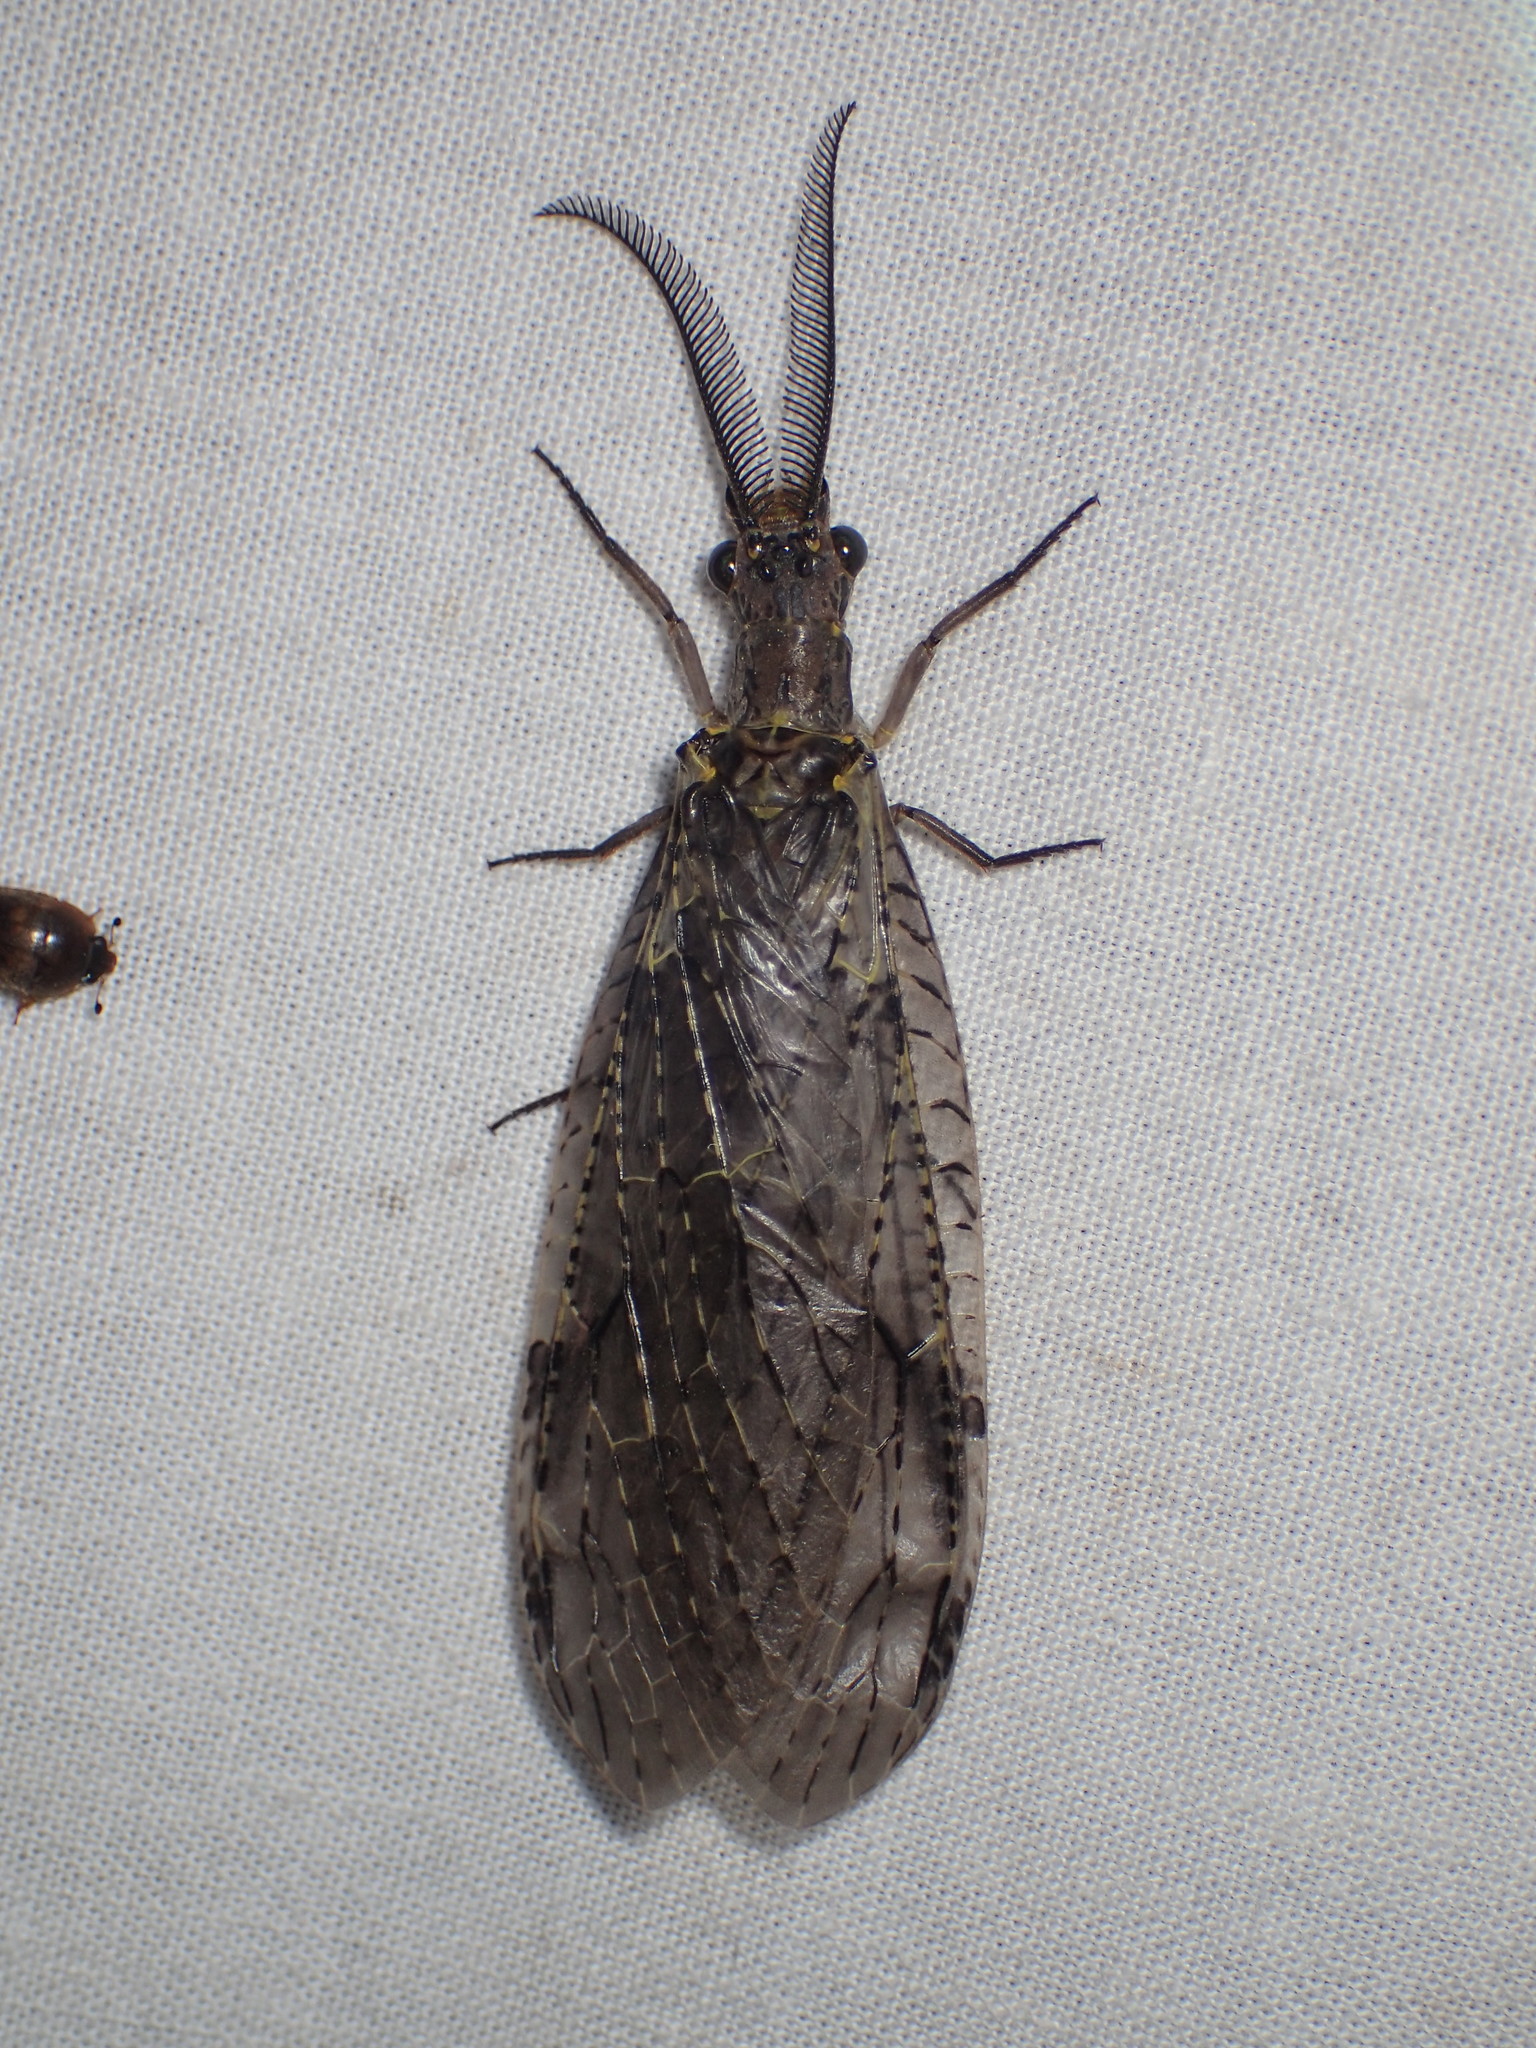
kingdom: Animalia
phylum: Arthropoda
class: Insecta
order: Megaloptera
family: Corydalidae
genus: Chauliodes
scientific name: Chauliodes rastricornis
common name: Spring fishfly
